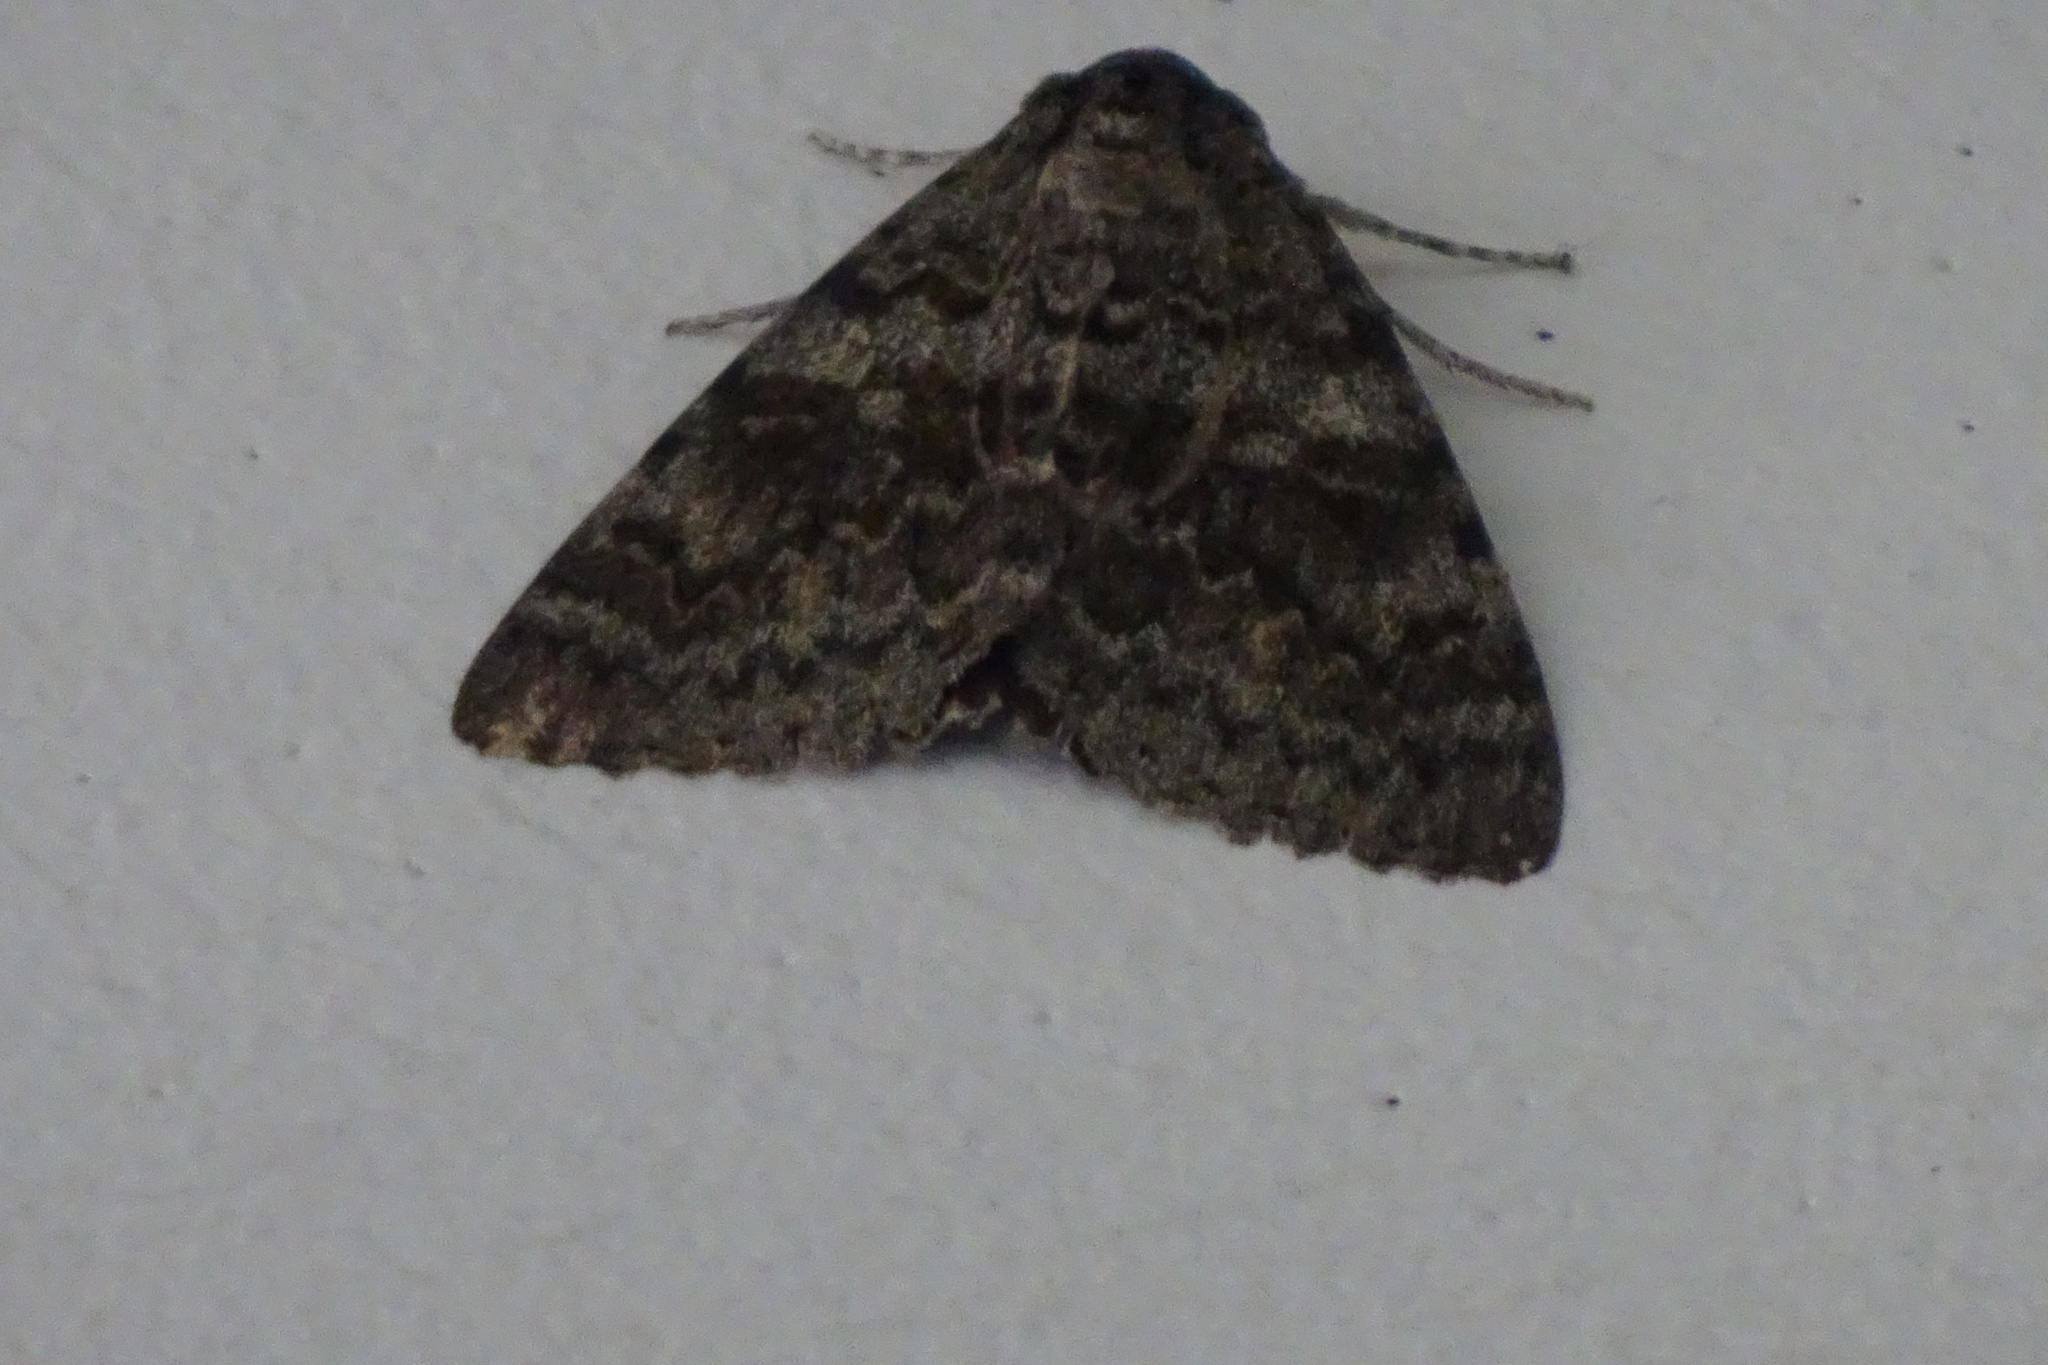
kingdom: Animalia
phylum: Arthropoda
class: Insecta
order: Lepidoptera
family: Erebidae
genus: Catocala
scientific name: Catocala elocata
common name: French red underwing
